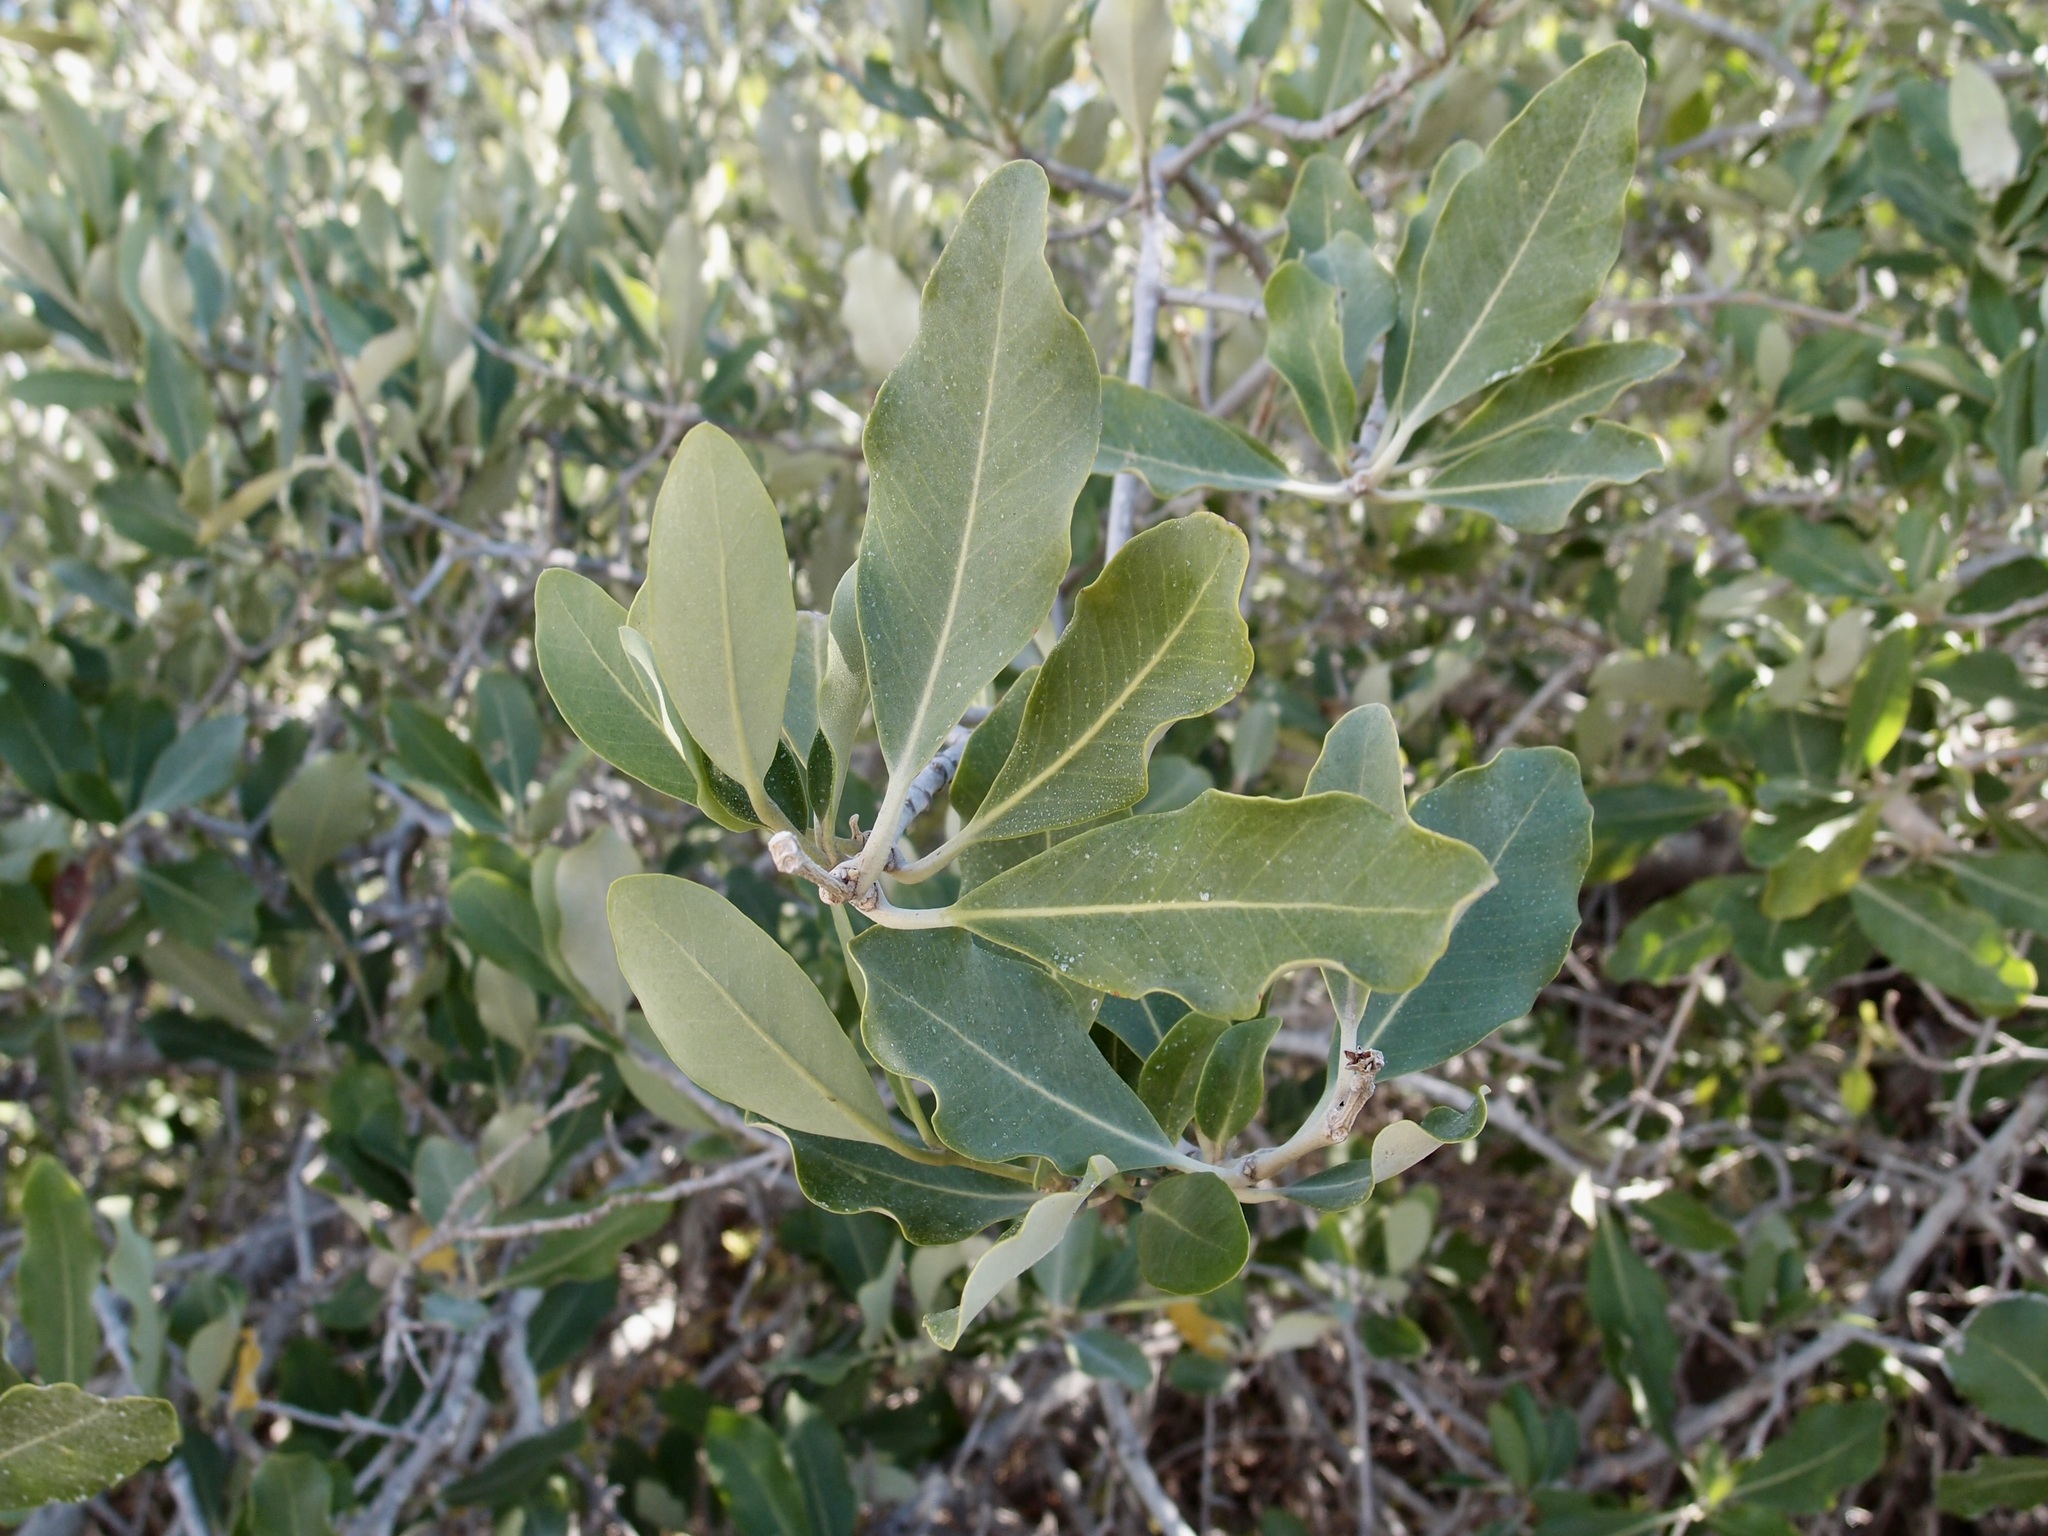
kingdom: Plantae
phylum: Tracheophyta
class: Magnoliopsida
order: Lamiales
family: Acanthaceae
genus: Avicennia
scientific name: Avicennia germinans
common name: Black mangrove
